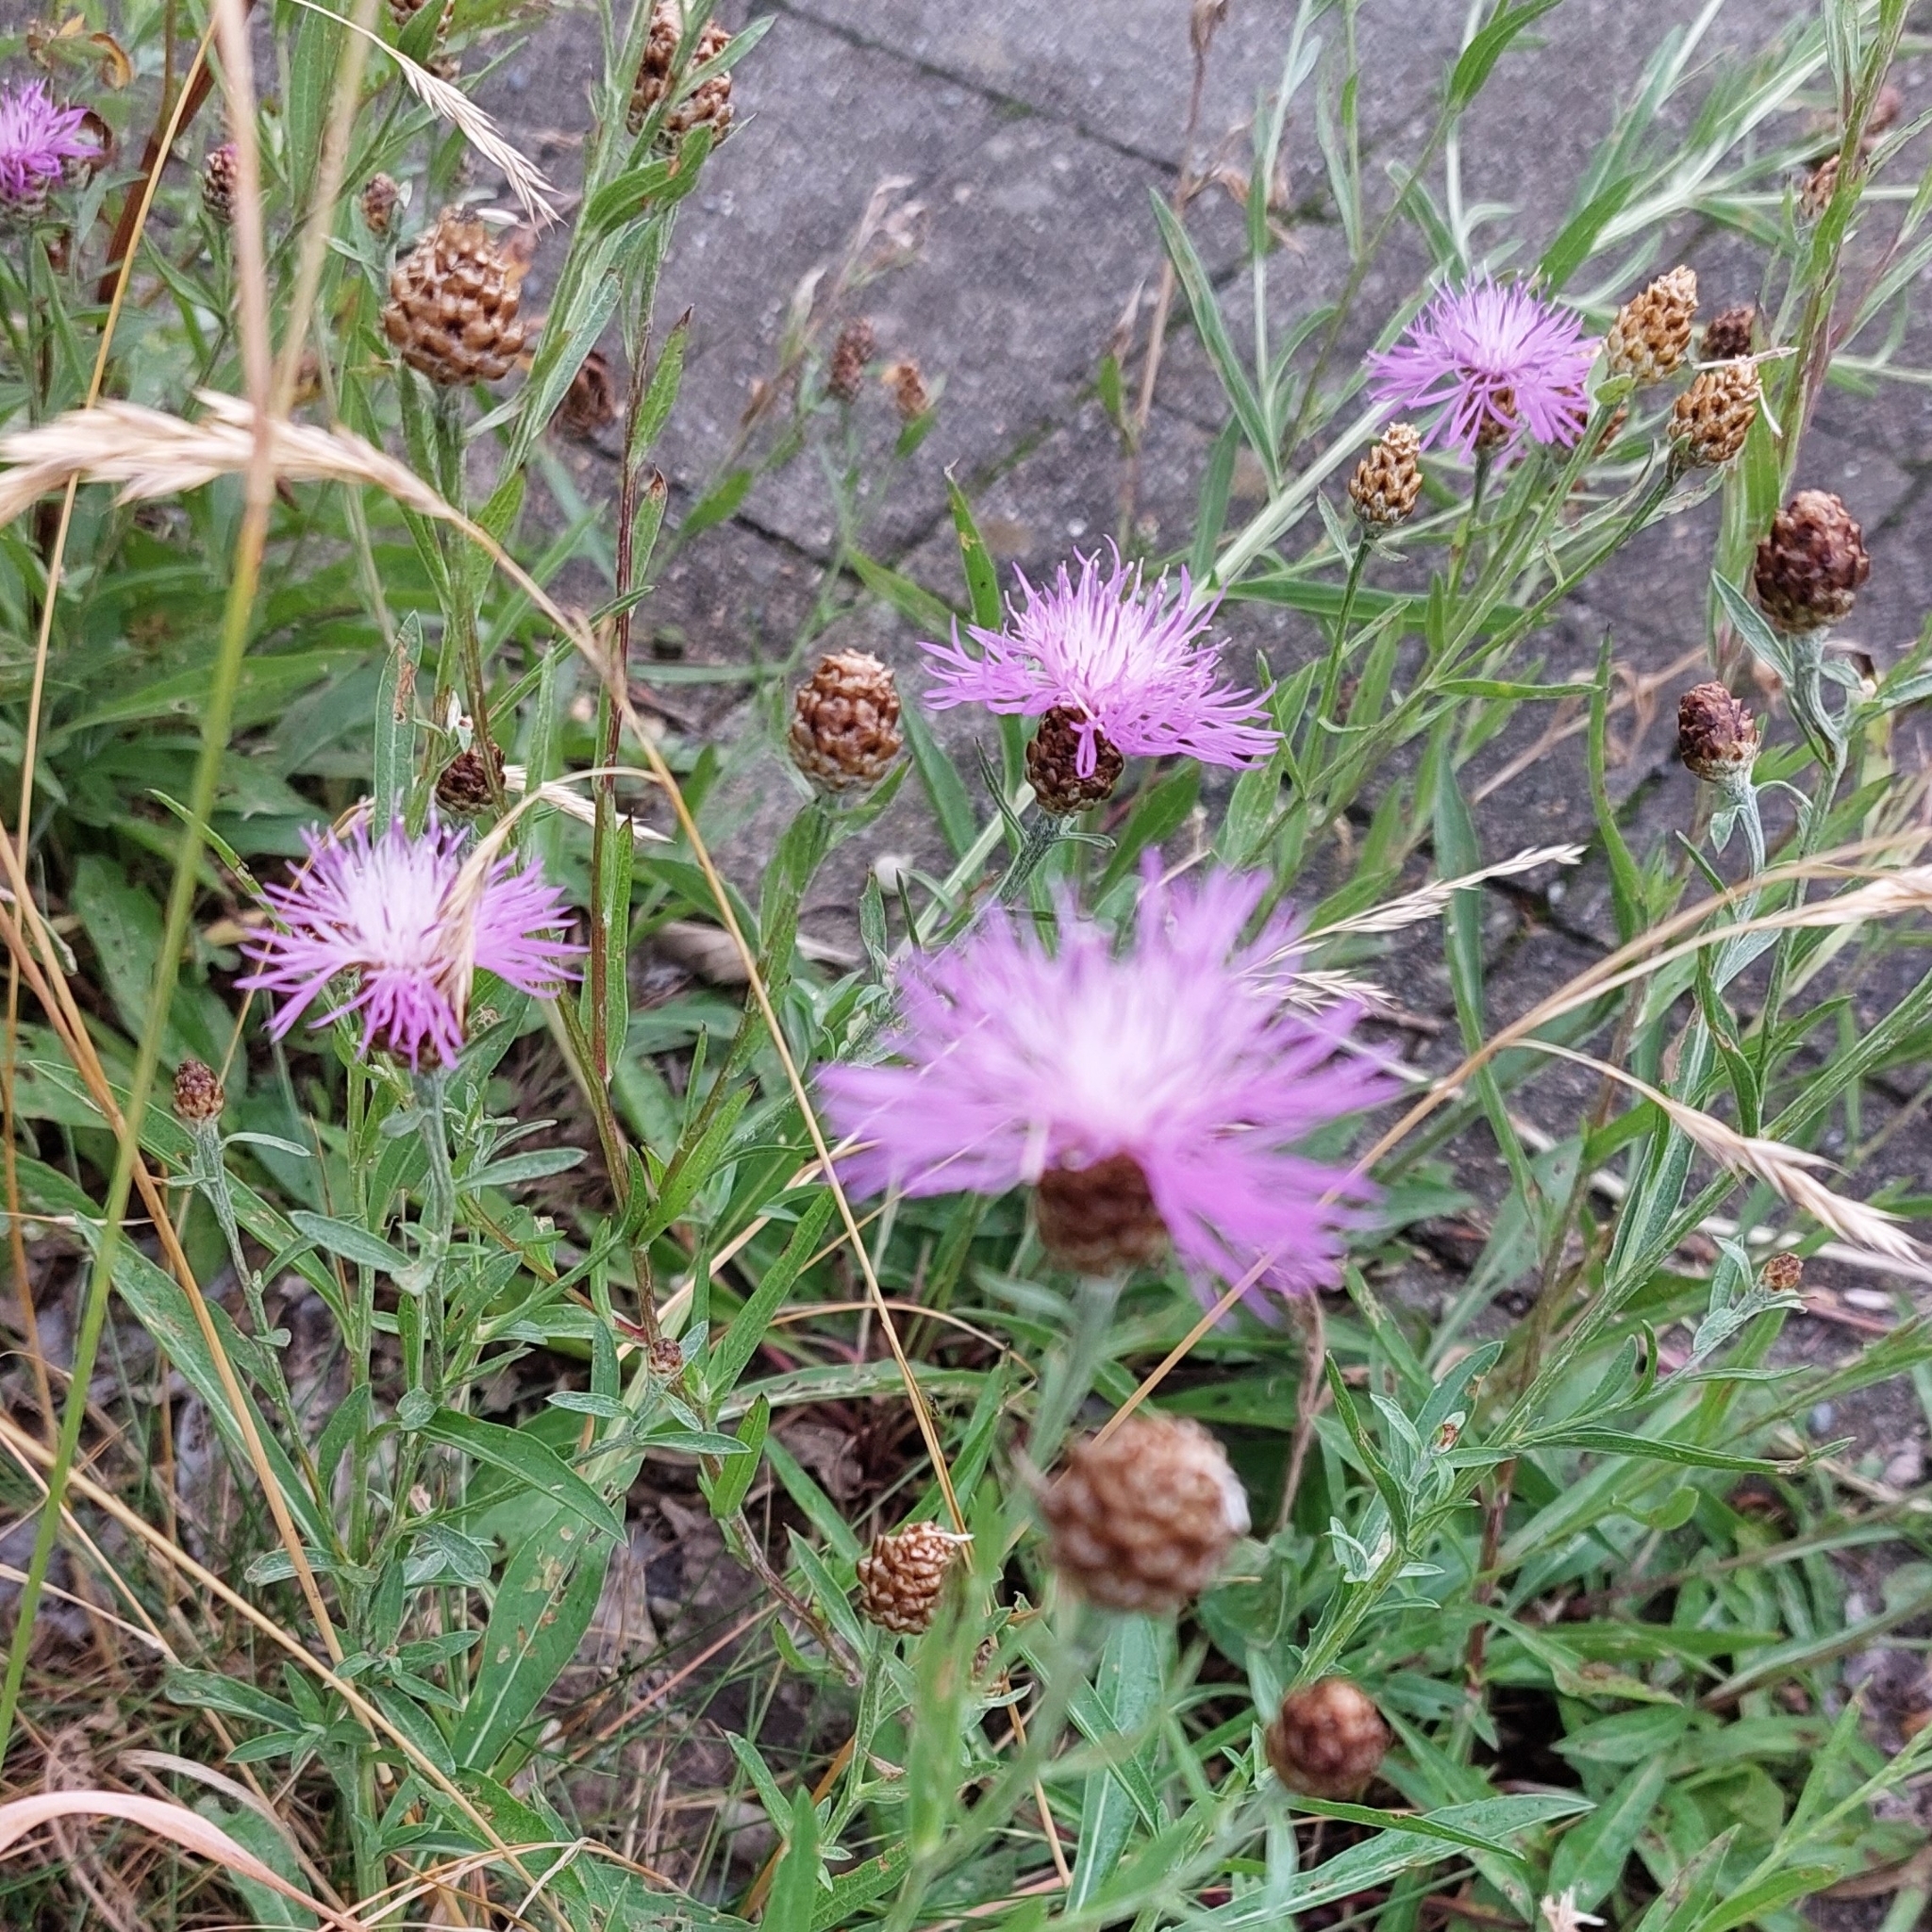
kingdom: Plantae
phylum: Tracheophyta
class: Magnoliopsida
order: Asterales
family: Asteraceae
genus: Centaurea
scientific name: Centaurea jacea
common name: Brown knapweed
